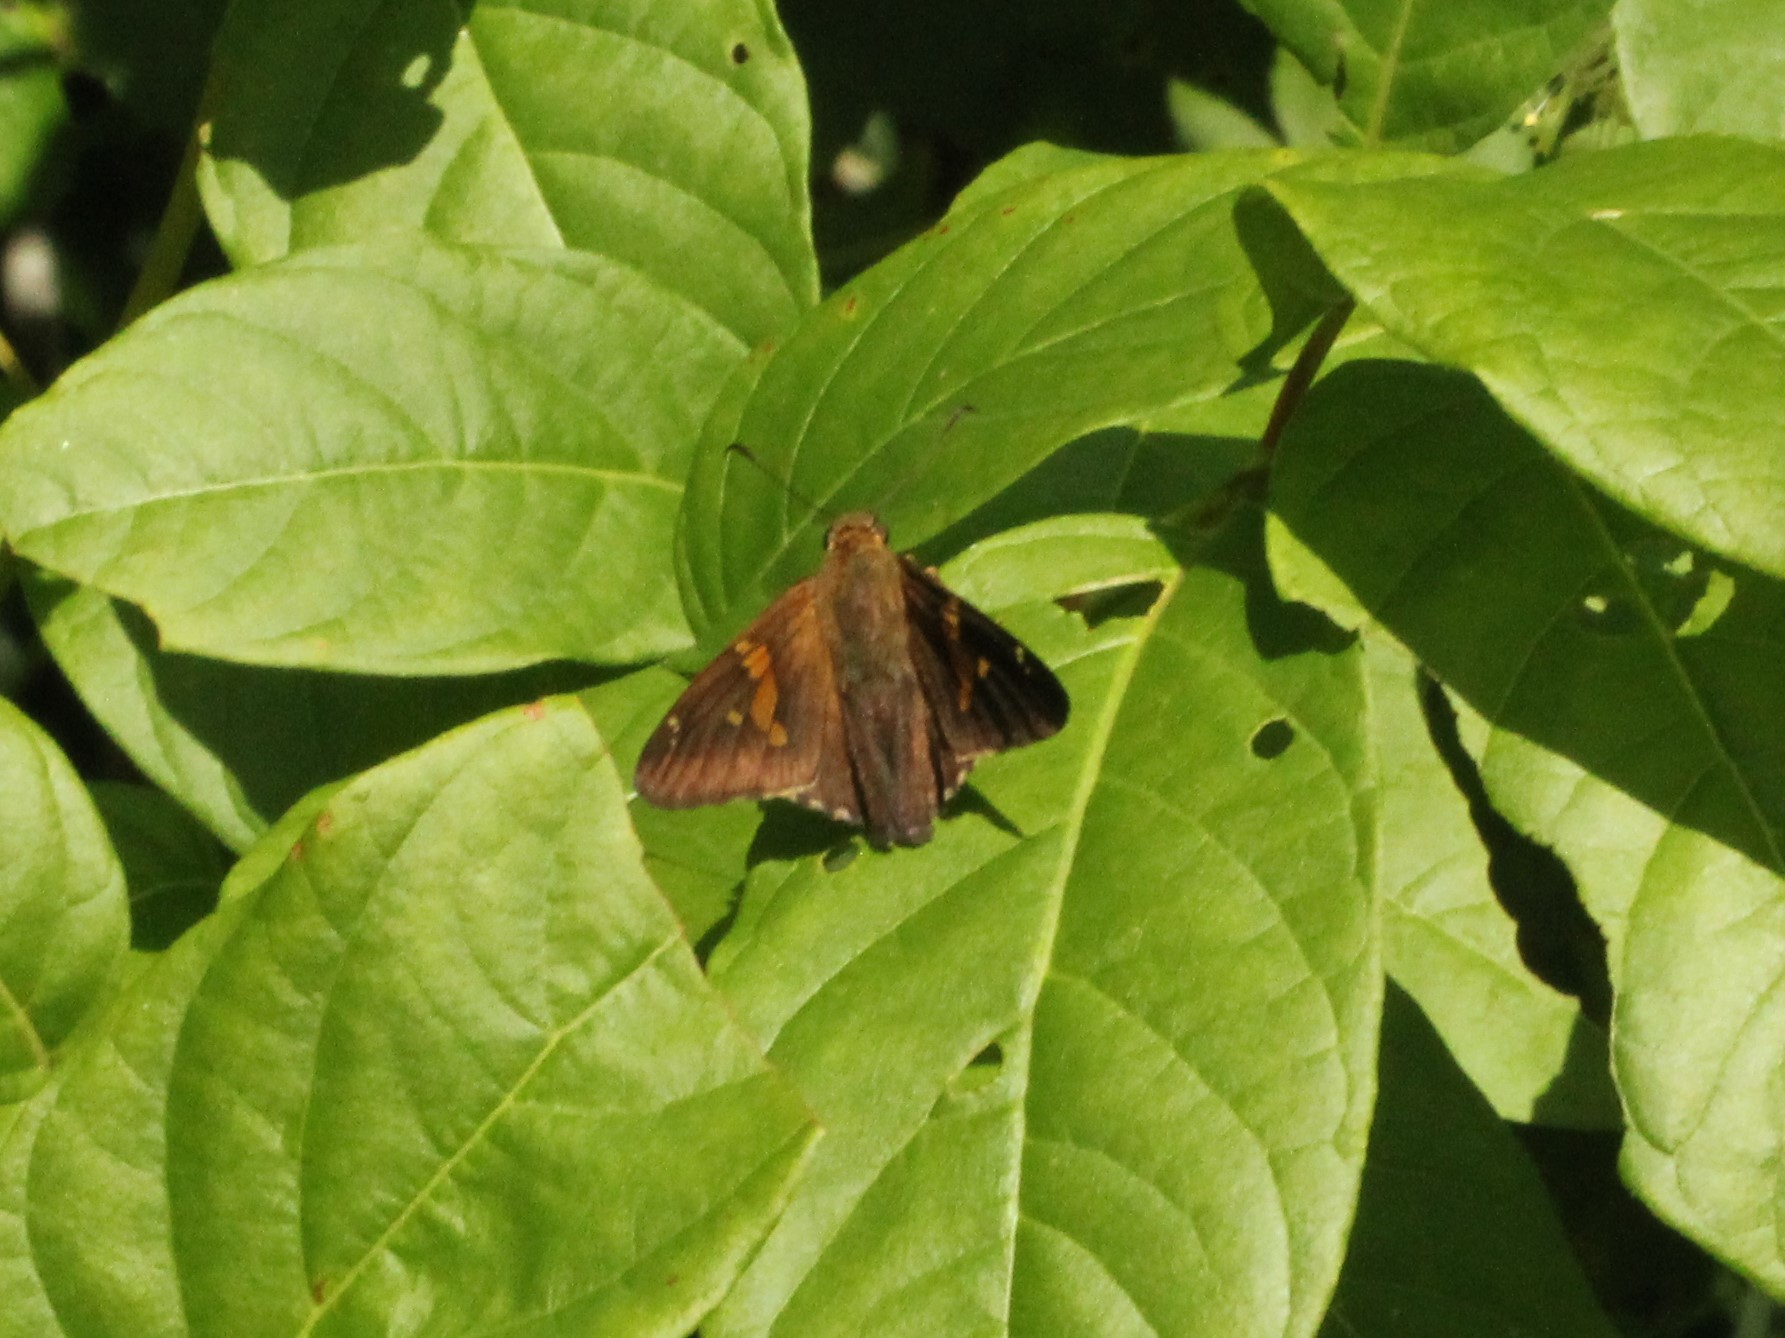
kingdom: Animalia
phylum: Arthropoda
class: Insecta
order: Lepidoptera
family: Hesperiidae
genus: Epargyreus
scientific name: Epargyreus clarus
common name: Silver-spotted skipper
